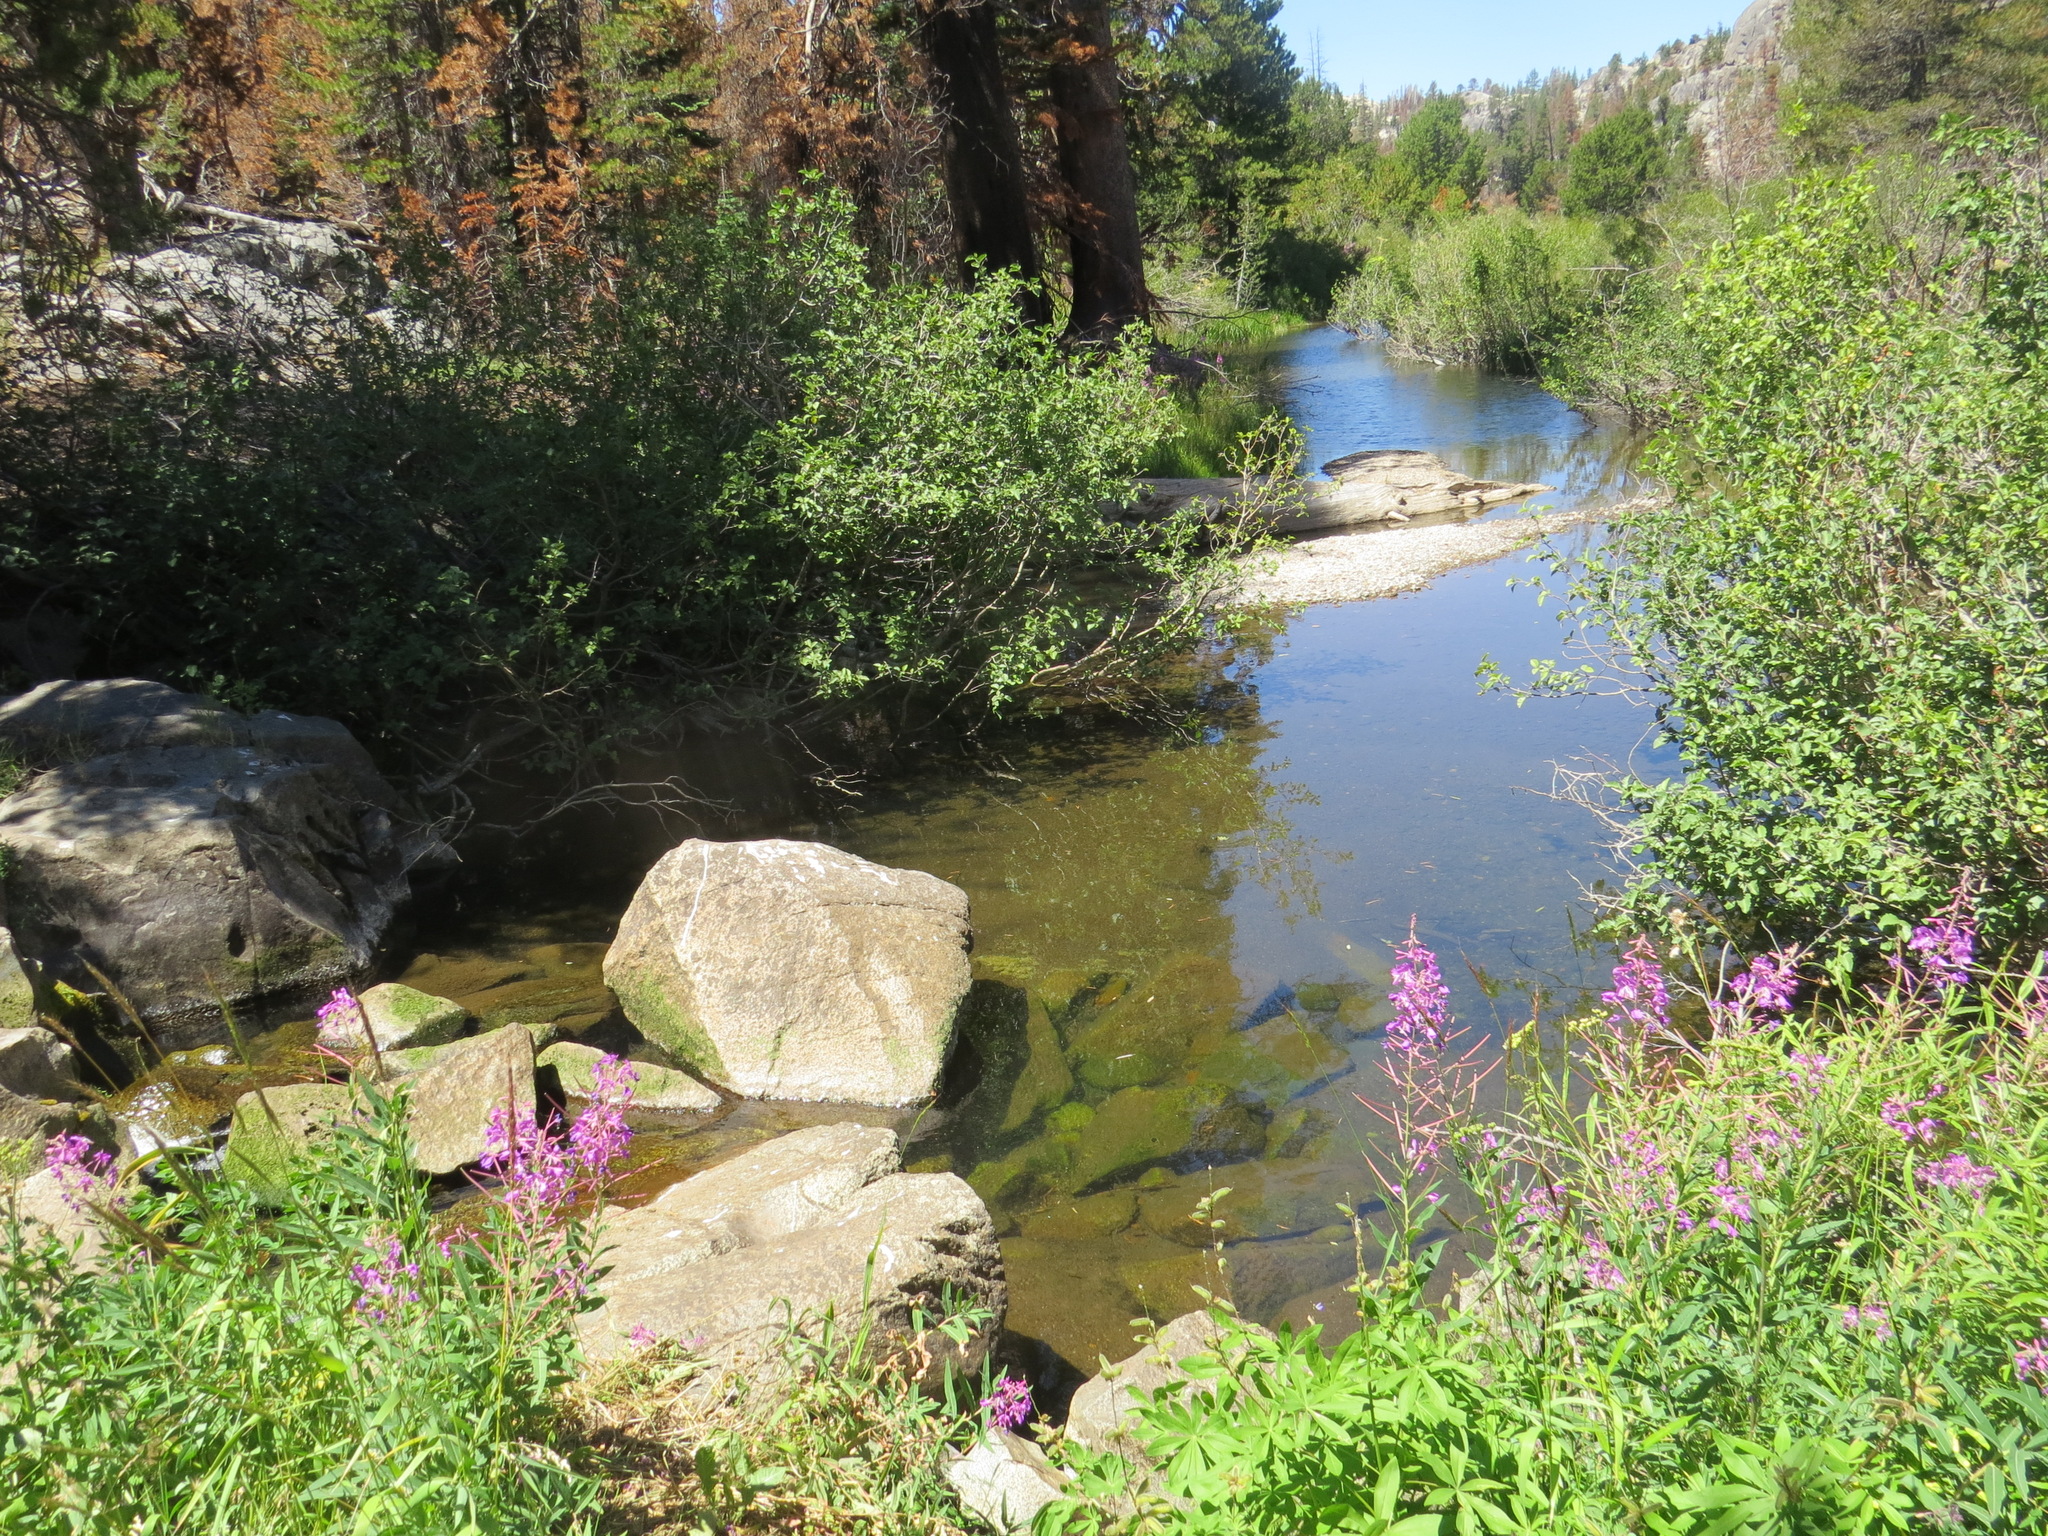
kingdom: Animalia
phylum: Chordata
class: Mammalia
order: Rodentia
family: Castoridae
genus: Castor
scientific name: Castor canadensis
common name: American beaver
